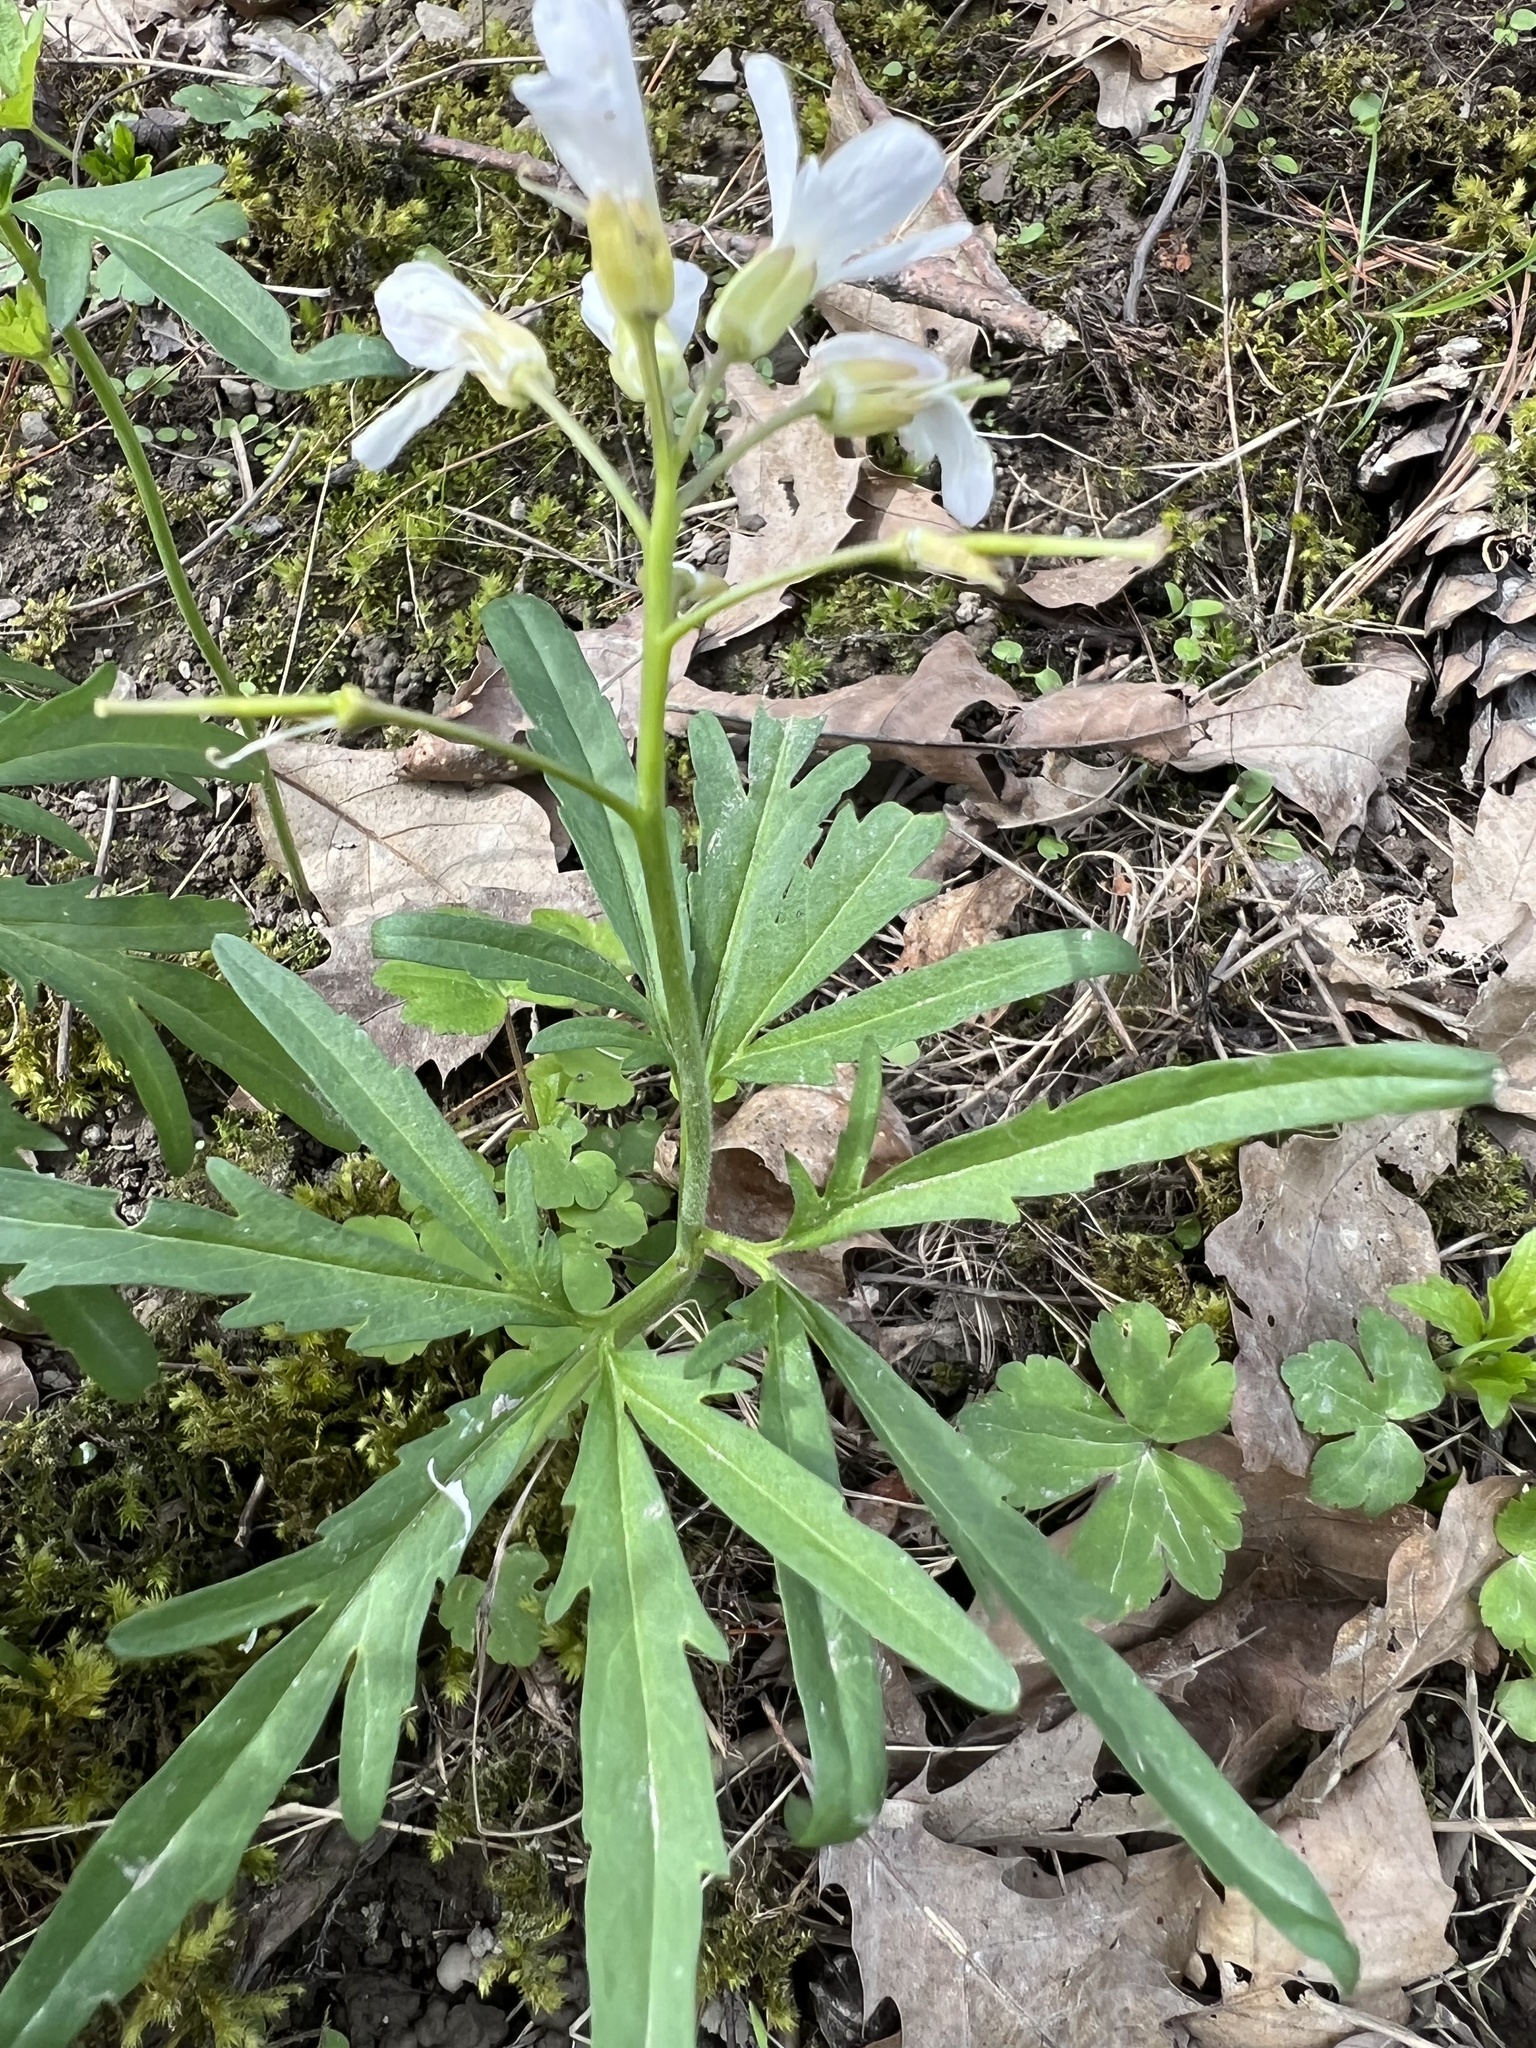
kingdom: Plantae
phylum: Tracheophyta
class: Magnoliopsida
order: Brassicales
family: Brassicaceae
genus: Cardamine
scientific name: Cardamine concatenata
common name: Cut-leaf toothcup
